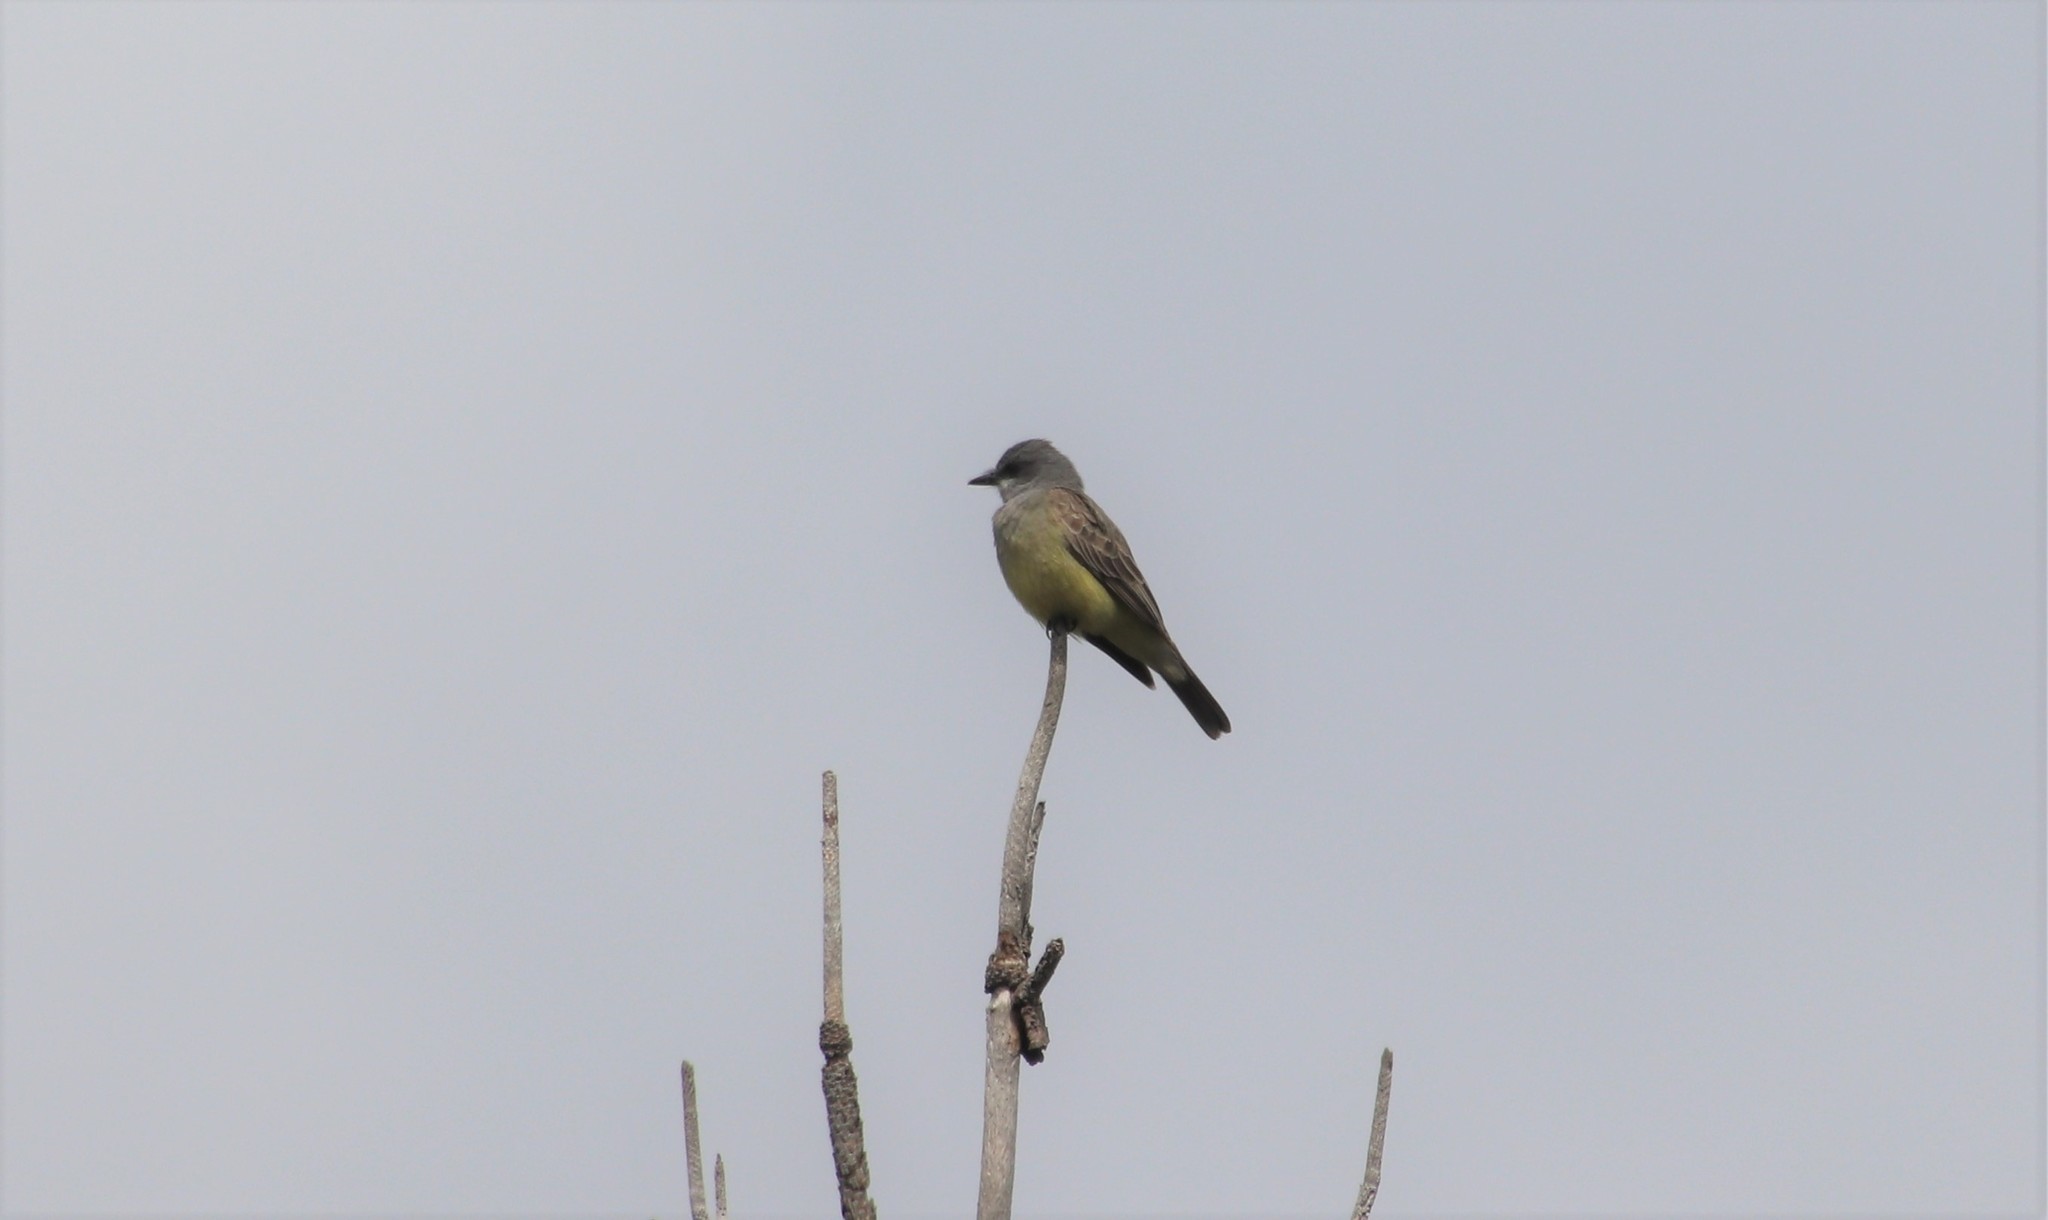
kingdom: Animalia
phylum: Chordata
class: Aves
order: Passeriformes
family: Tyrannidae
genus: Tyrannus
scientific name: Tyrannus vociferans
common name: Cassin's kingbird
